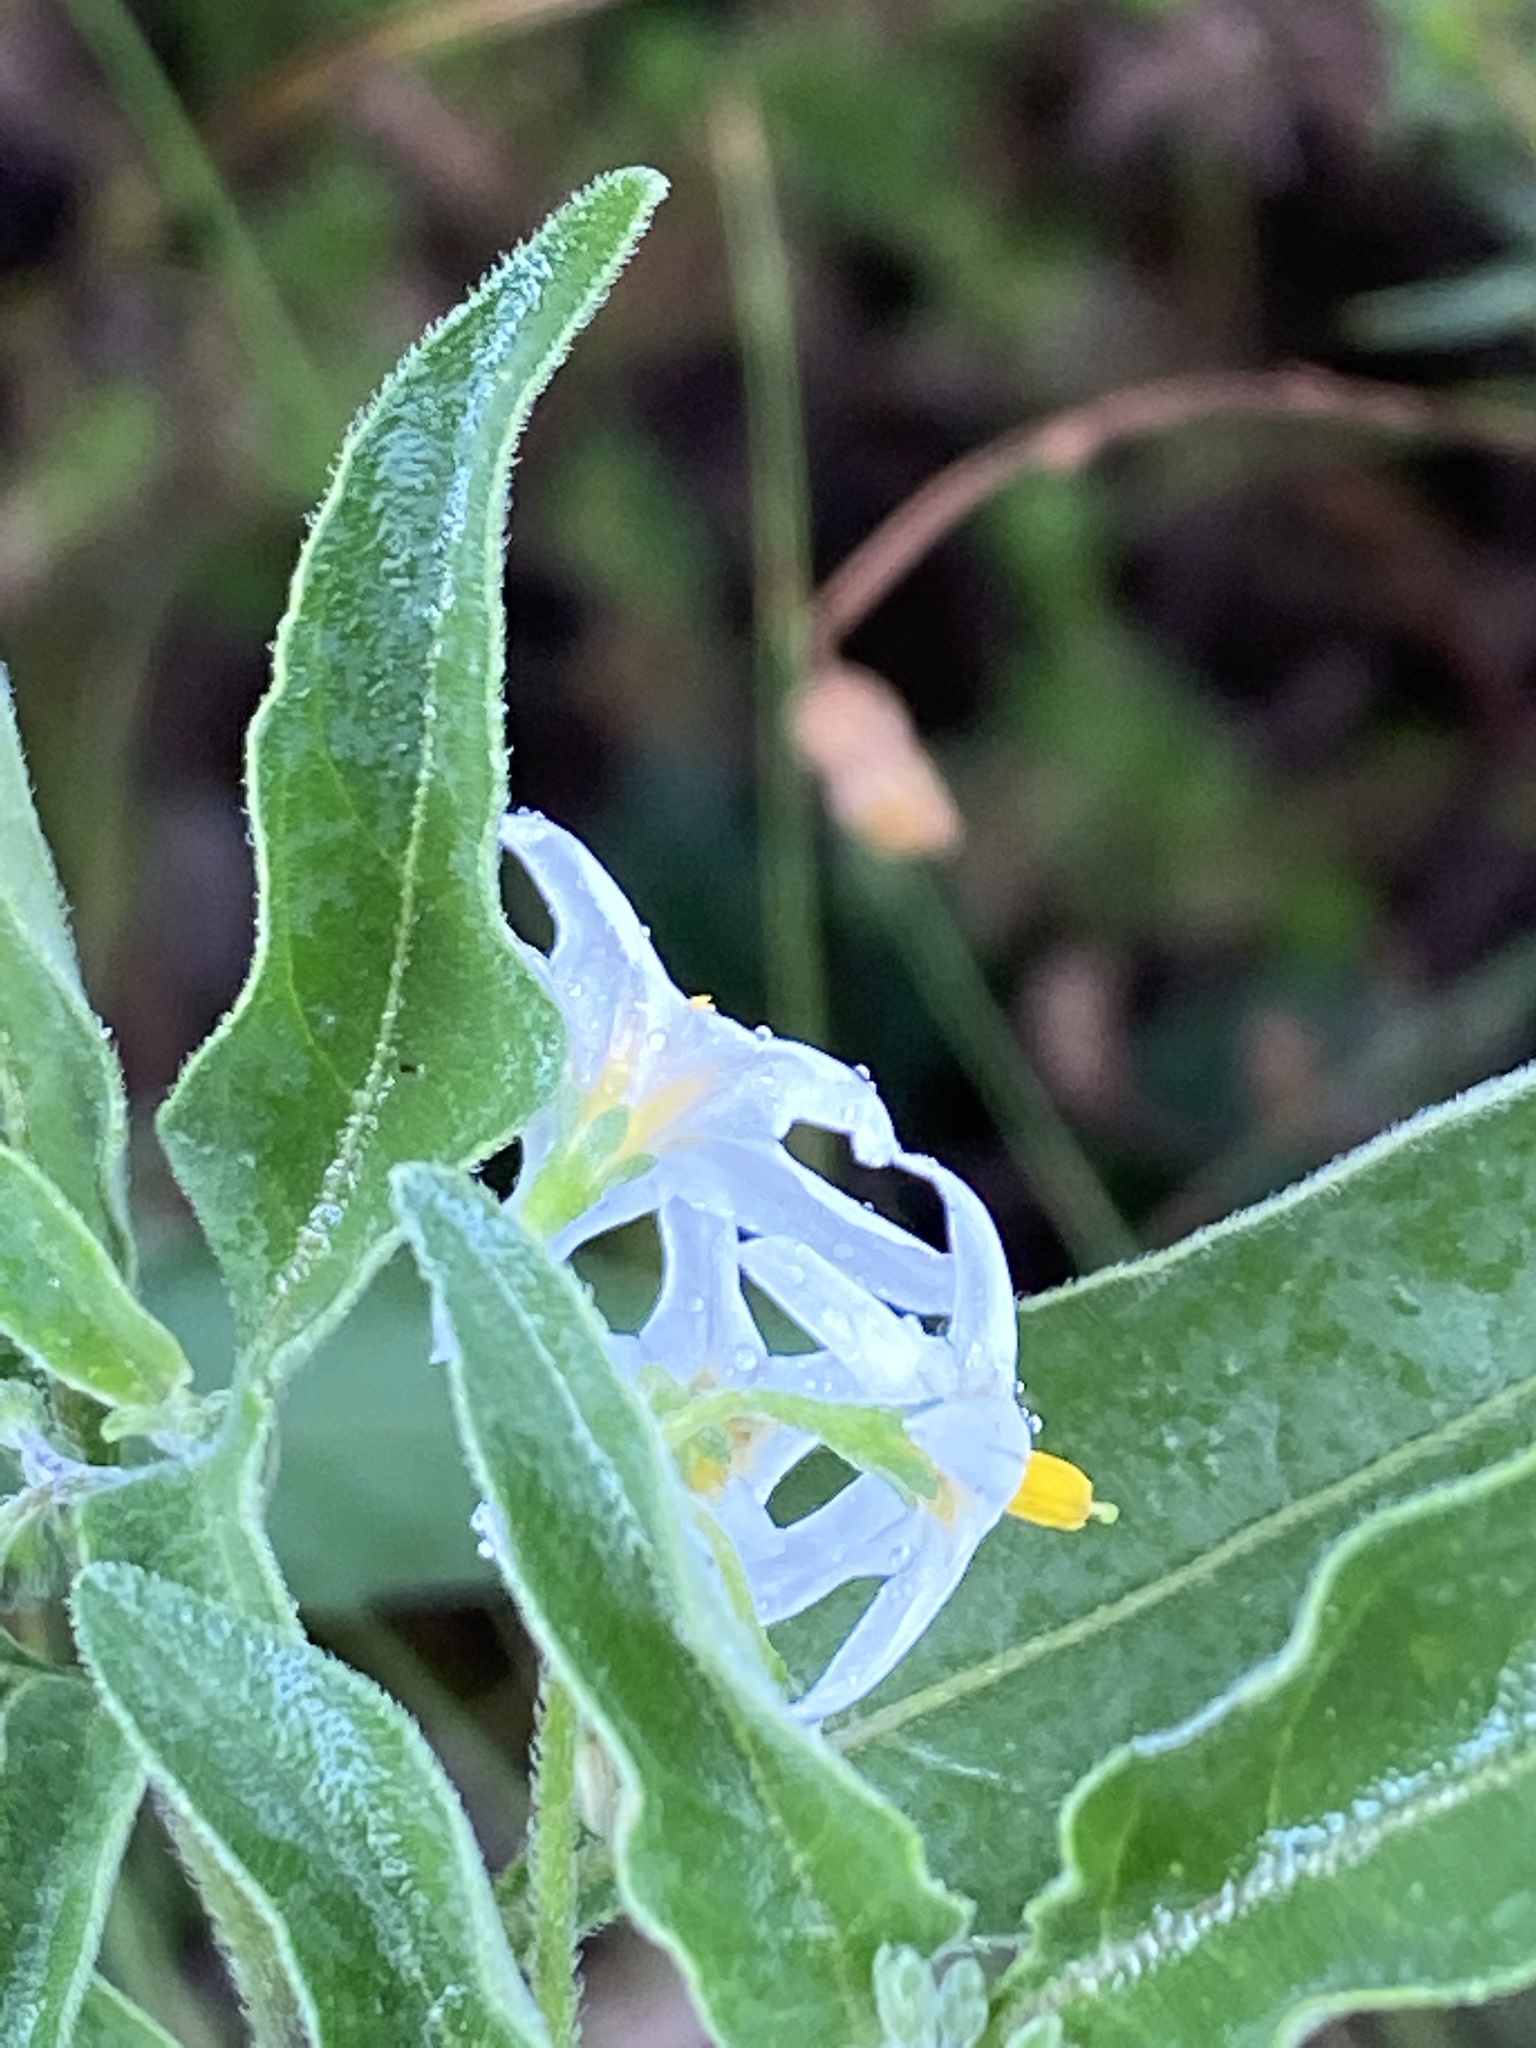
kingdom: Plantae
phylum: Tracheophyta
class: Magnoliopsida
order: Solanales
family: Solanaceae
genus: Solanum
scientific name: Solanum chenopodioides
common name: Tall nightshade
